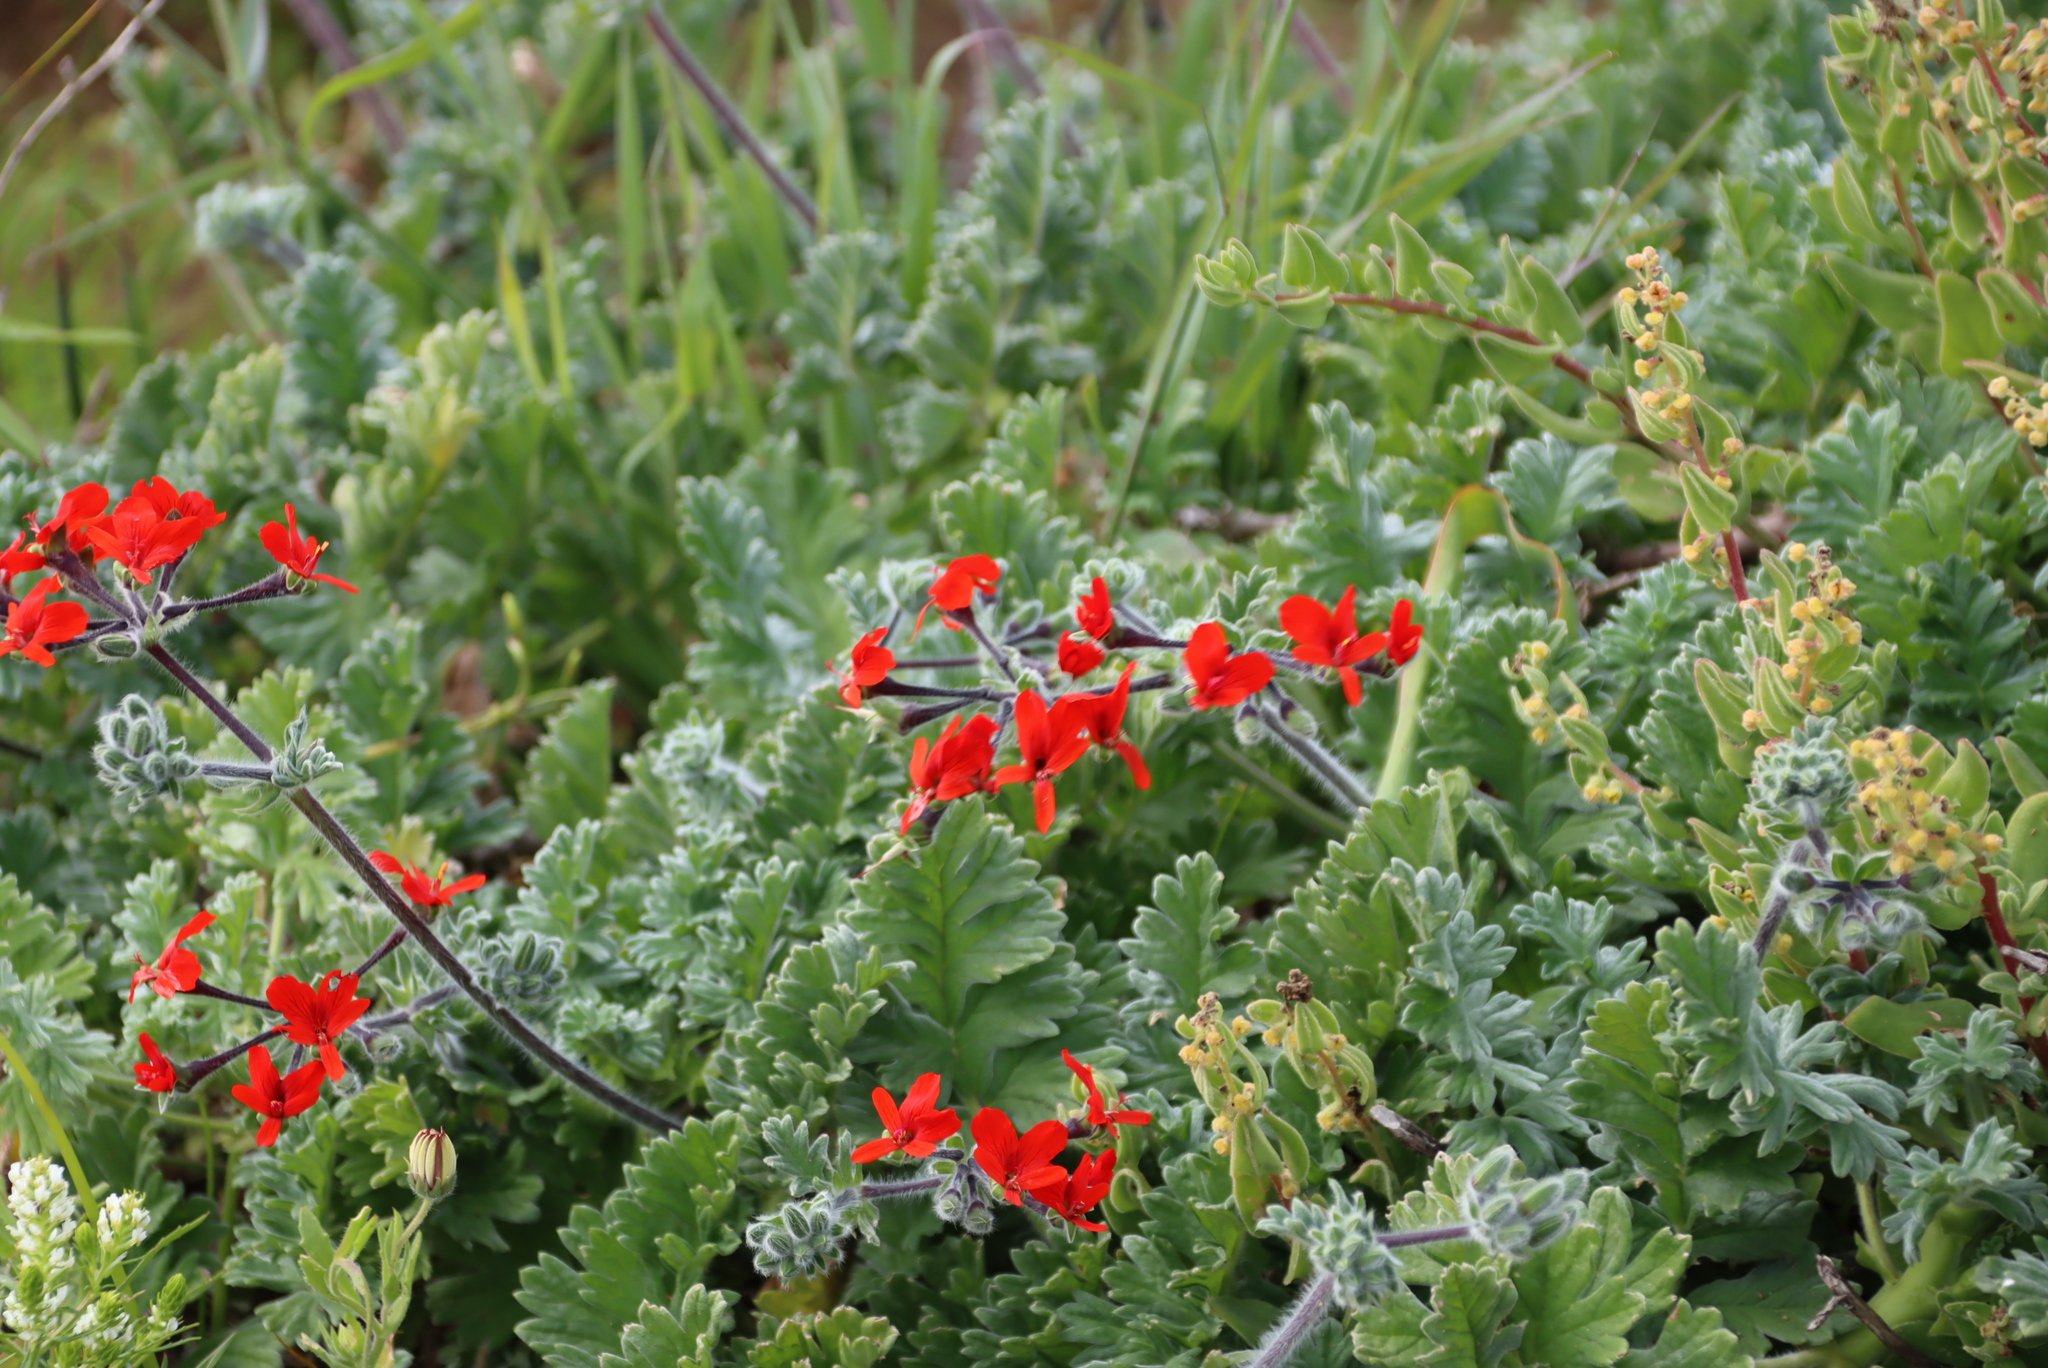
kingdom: Plantae
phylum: Tracheophyta
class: Magnoliopsida
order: Geraniales
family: Geraniaceae
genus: Pelargonium
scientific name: Pelargonium fulgidum
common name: Celandine-leaf pelargonium
